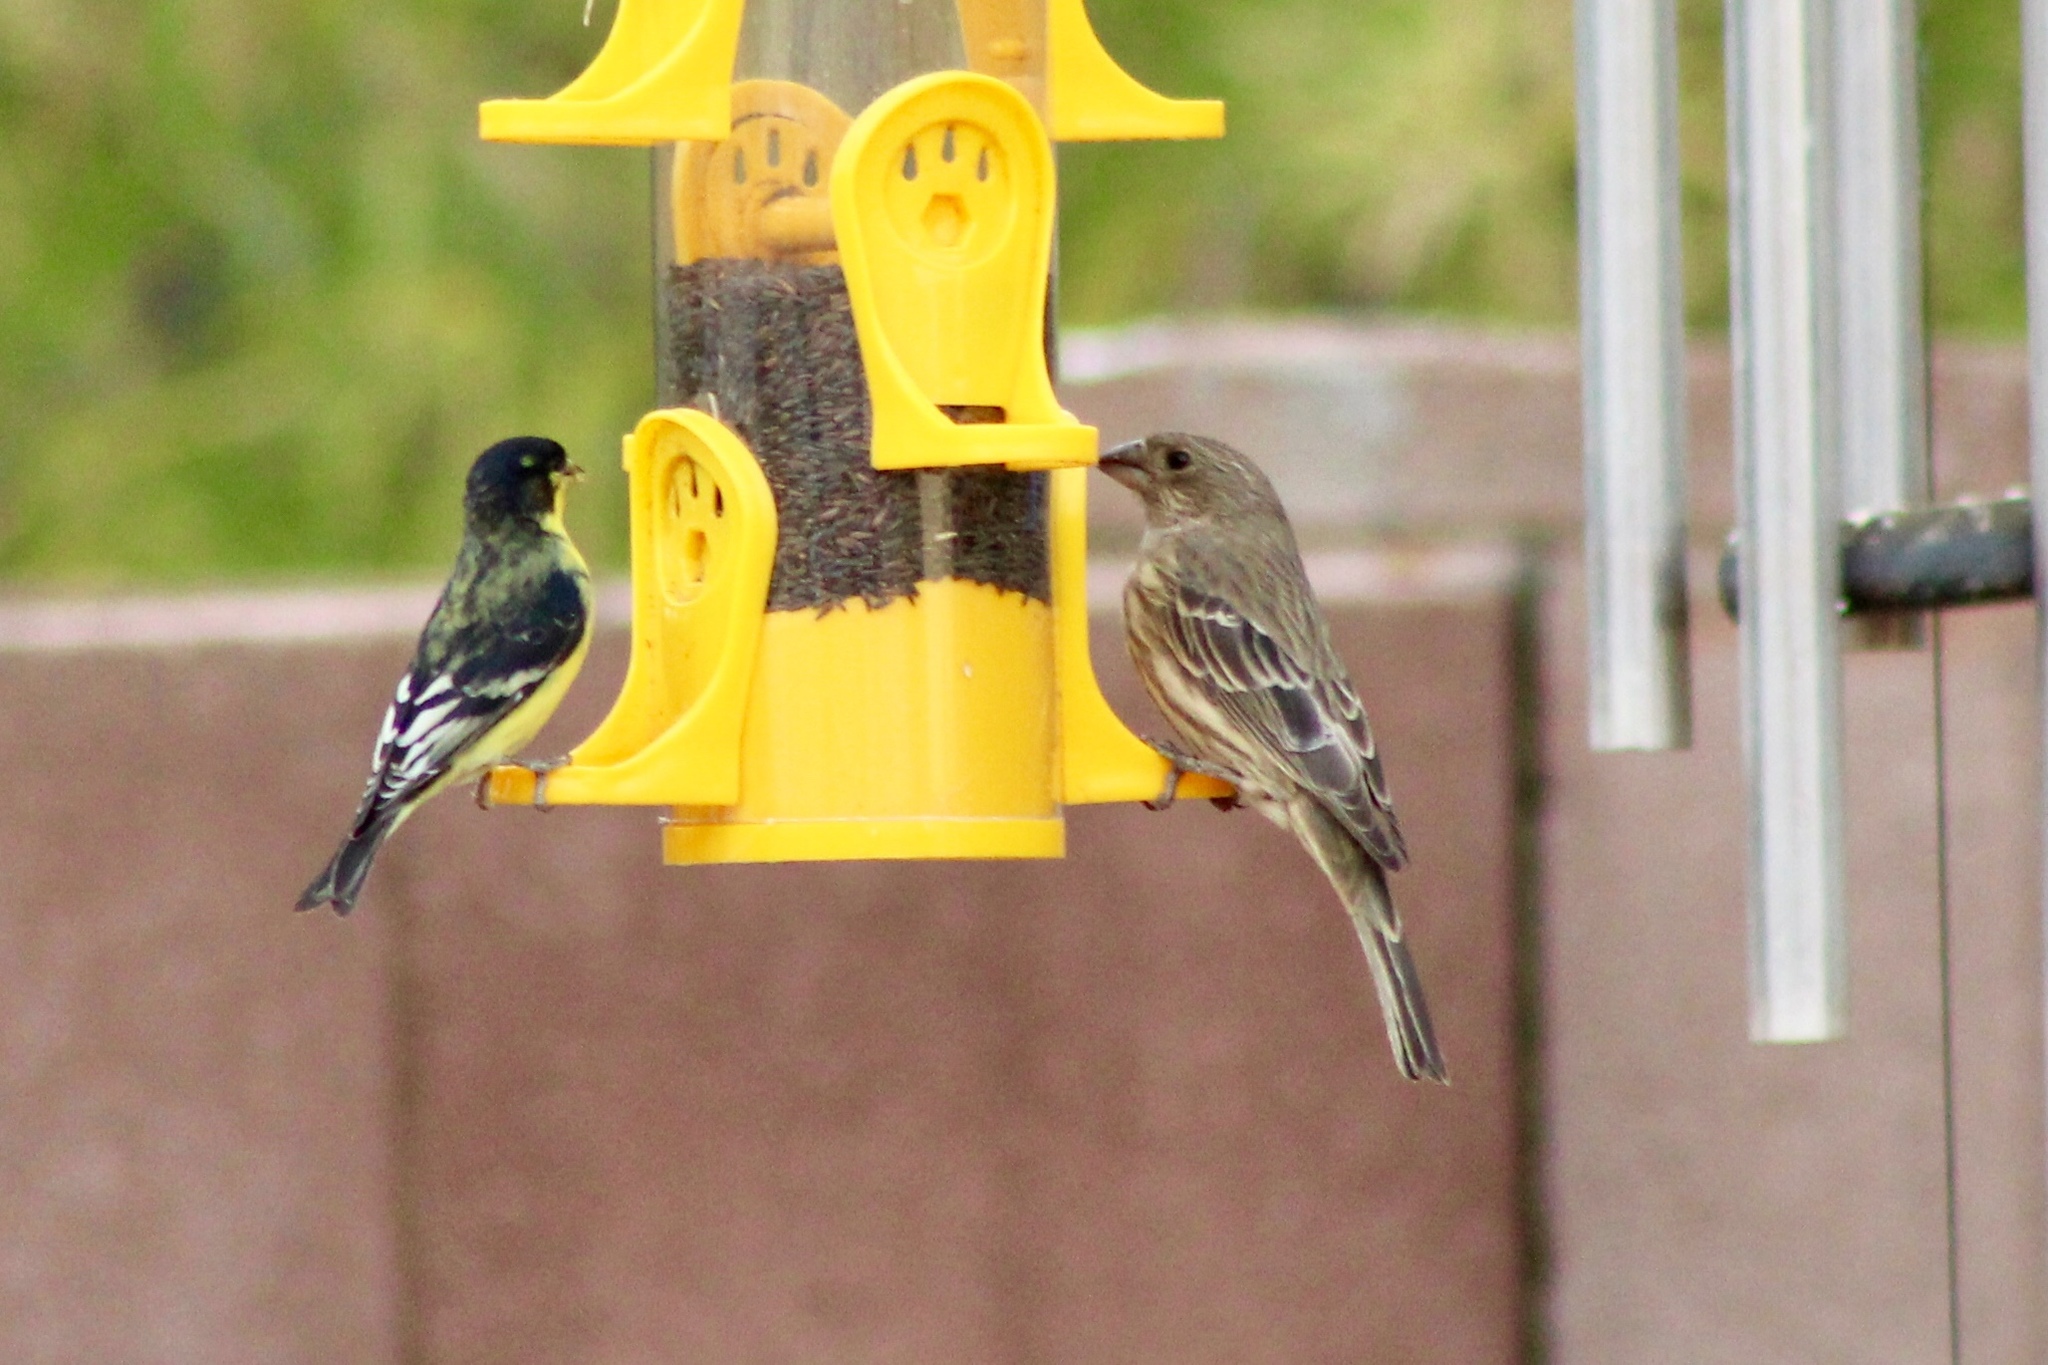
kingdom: Animalia
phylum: Chordata
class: Aves
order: Passeriformes
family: Fringillidae
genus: Haemorhous
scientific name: Haemorhous mexicanus
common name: House finch
